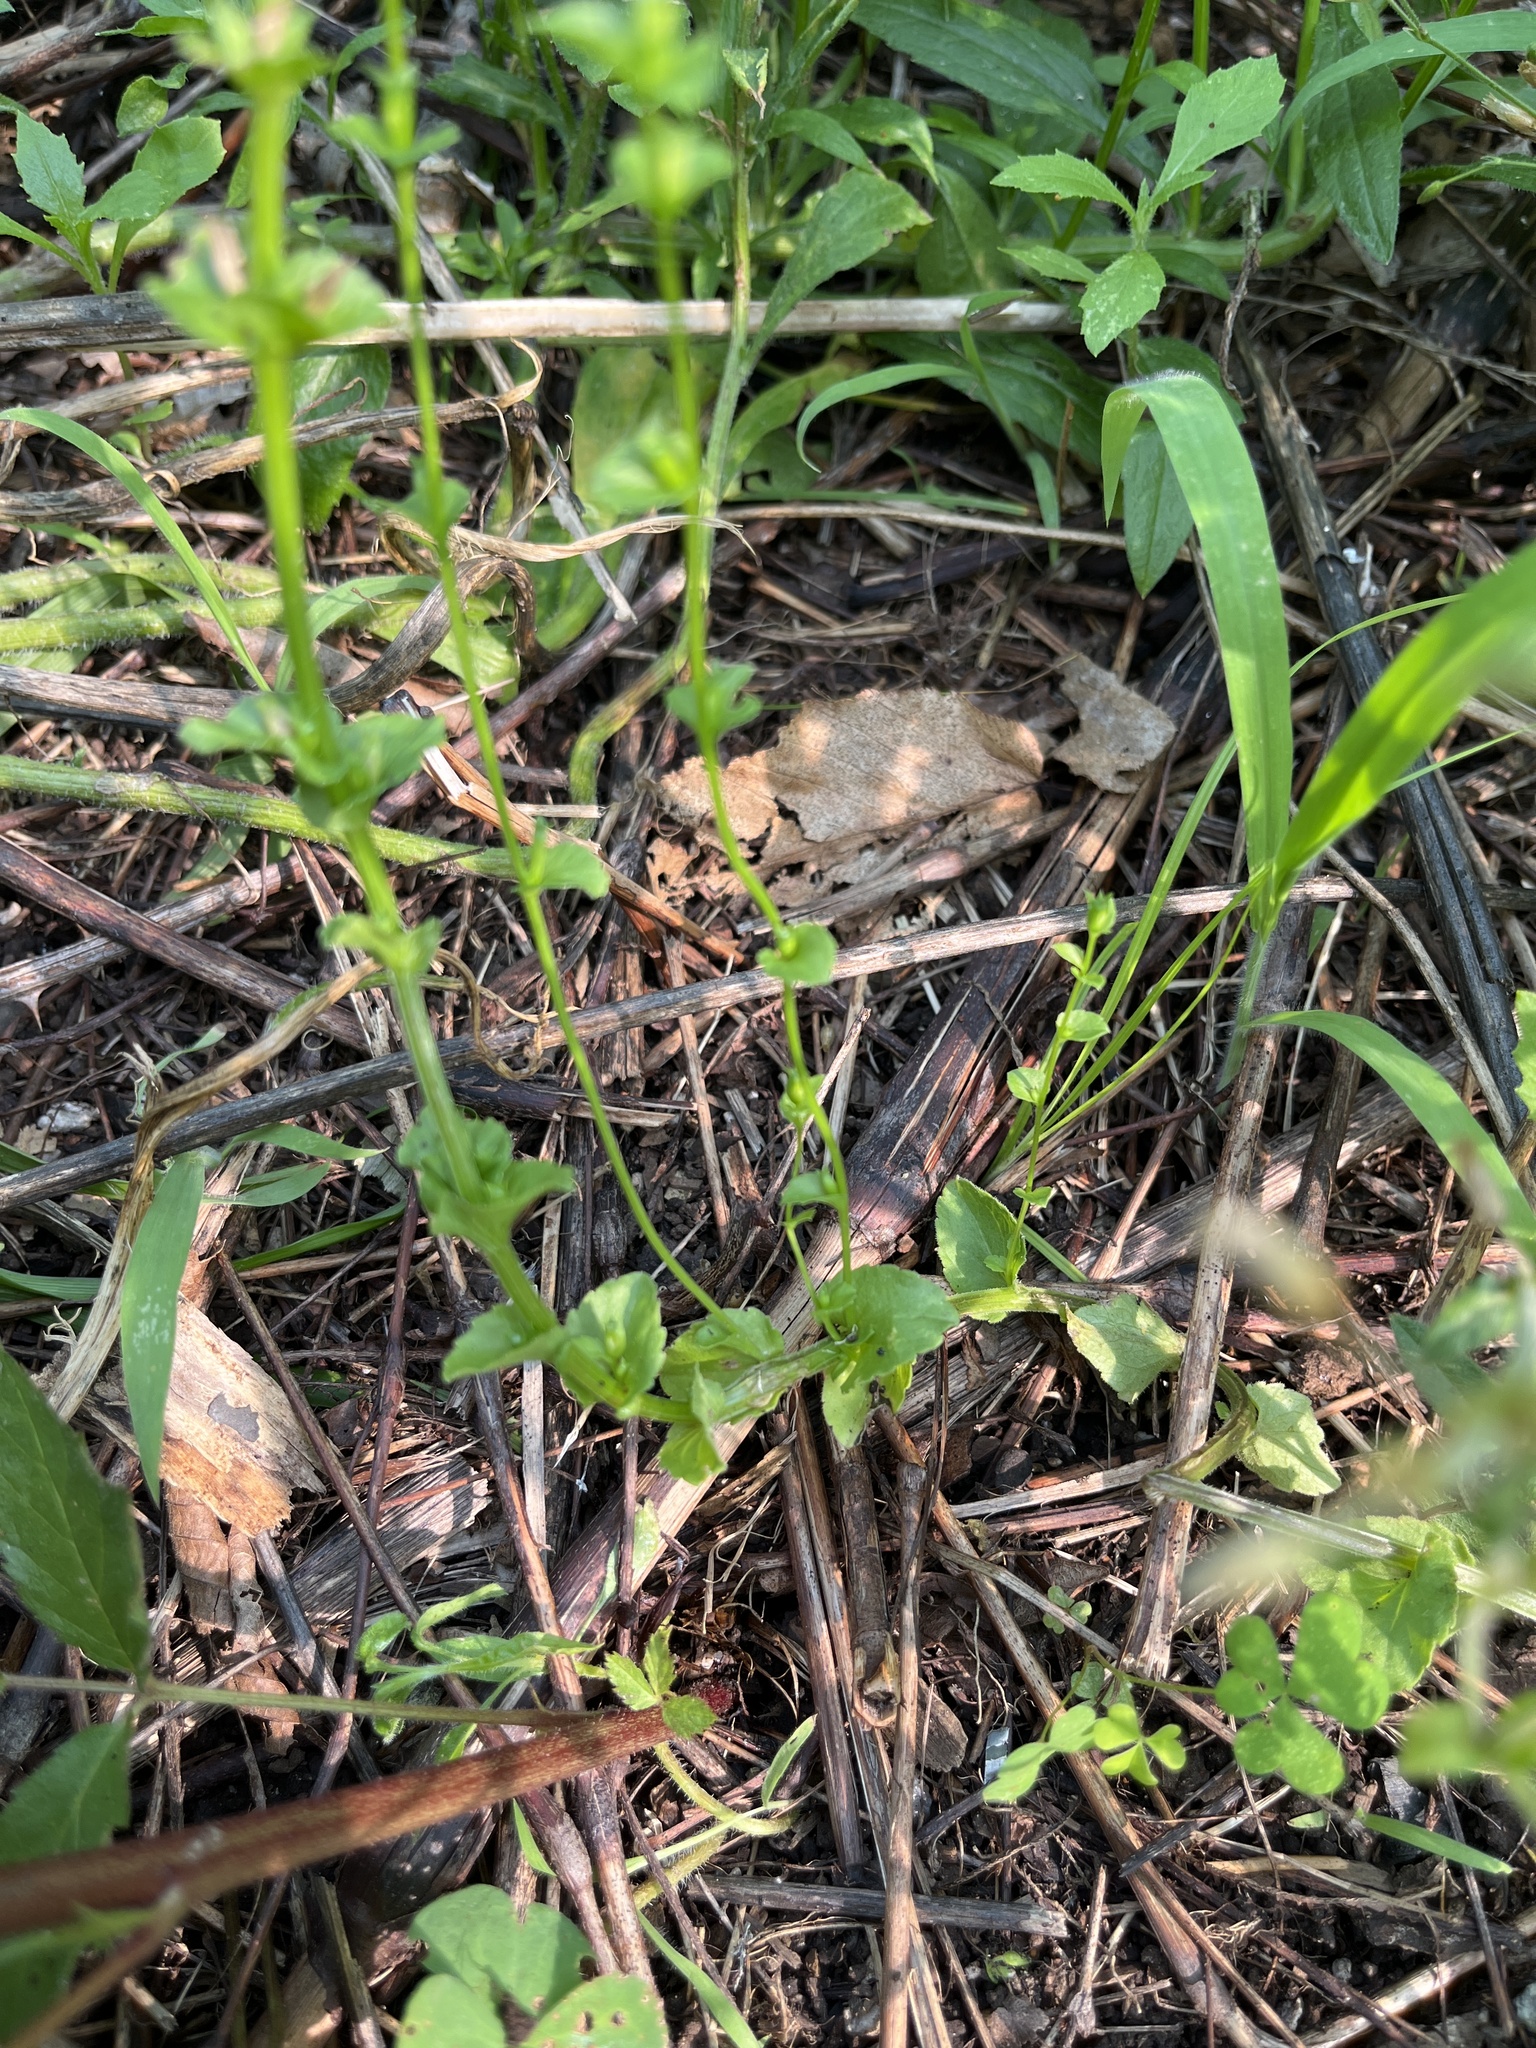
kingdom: Plantae
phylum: Tracheophyta
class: Magnoliopsida
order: Asterales
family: Campanulaceae
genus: Triodanis
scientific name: Triodanis perfoliata
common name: Clasping venus' looking-glass
